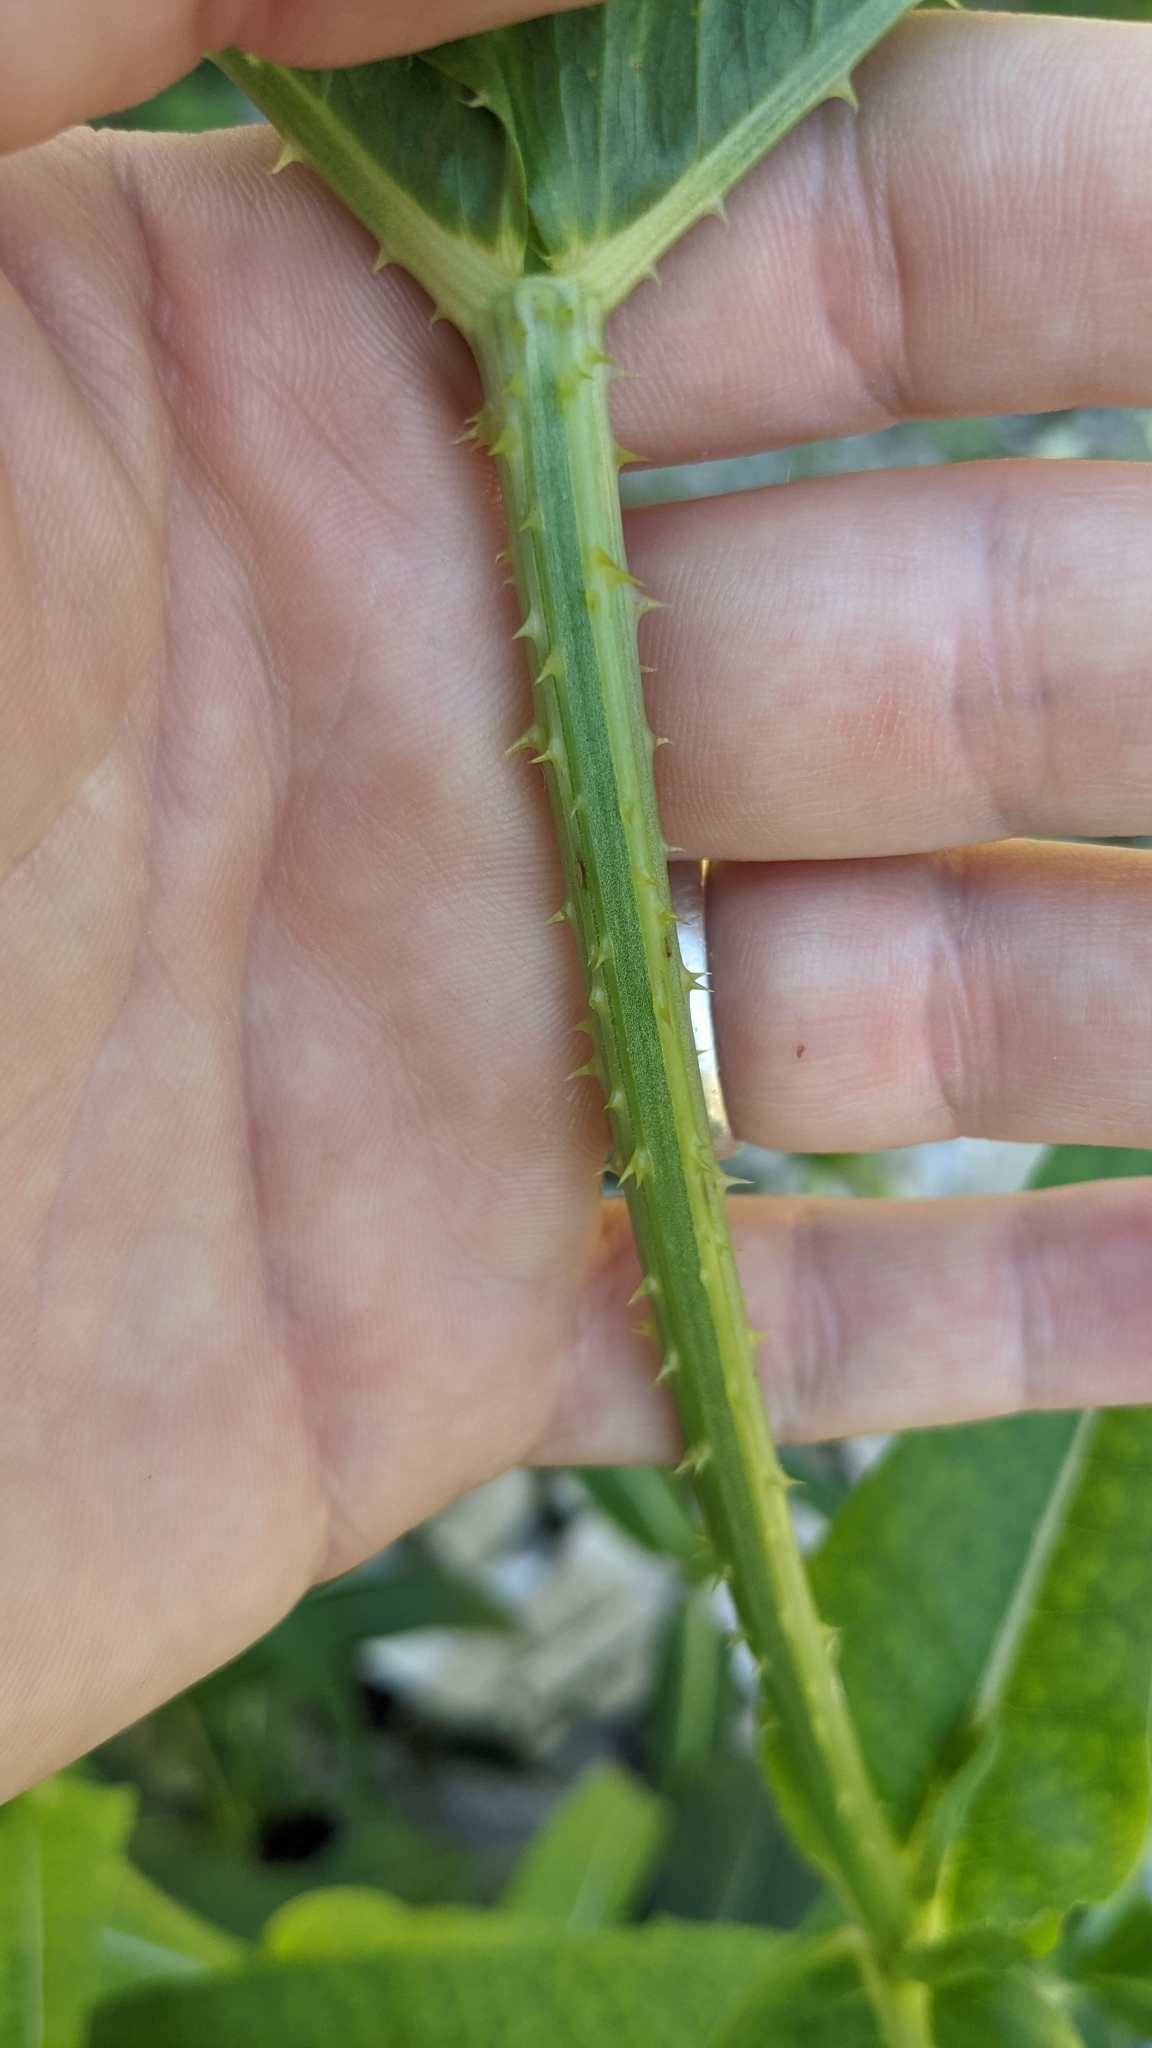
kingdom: Plantae
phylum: Tracheophyta
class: Magnoliopsida
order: Dipsacales
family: Caprifoliaceae
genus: Dipsacus
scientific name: Dipsacus fullonum
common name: Teasel
